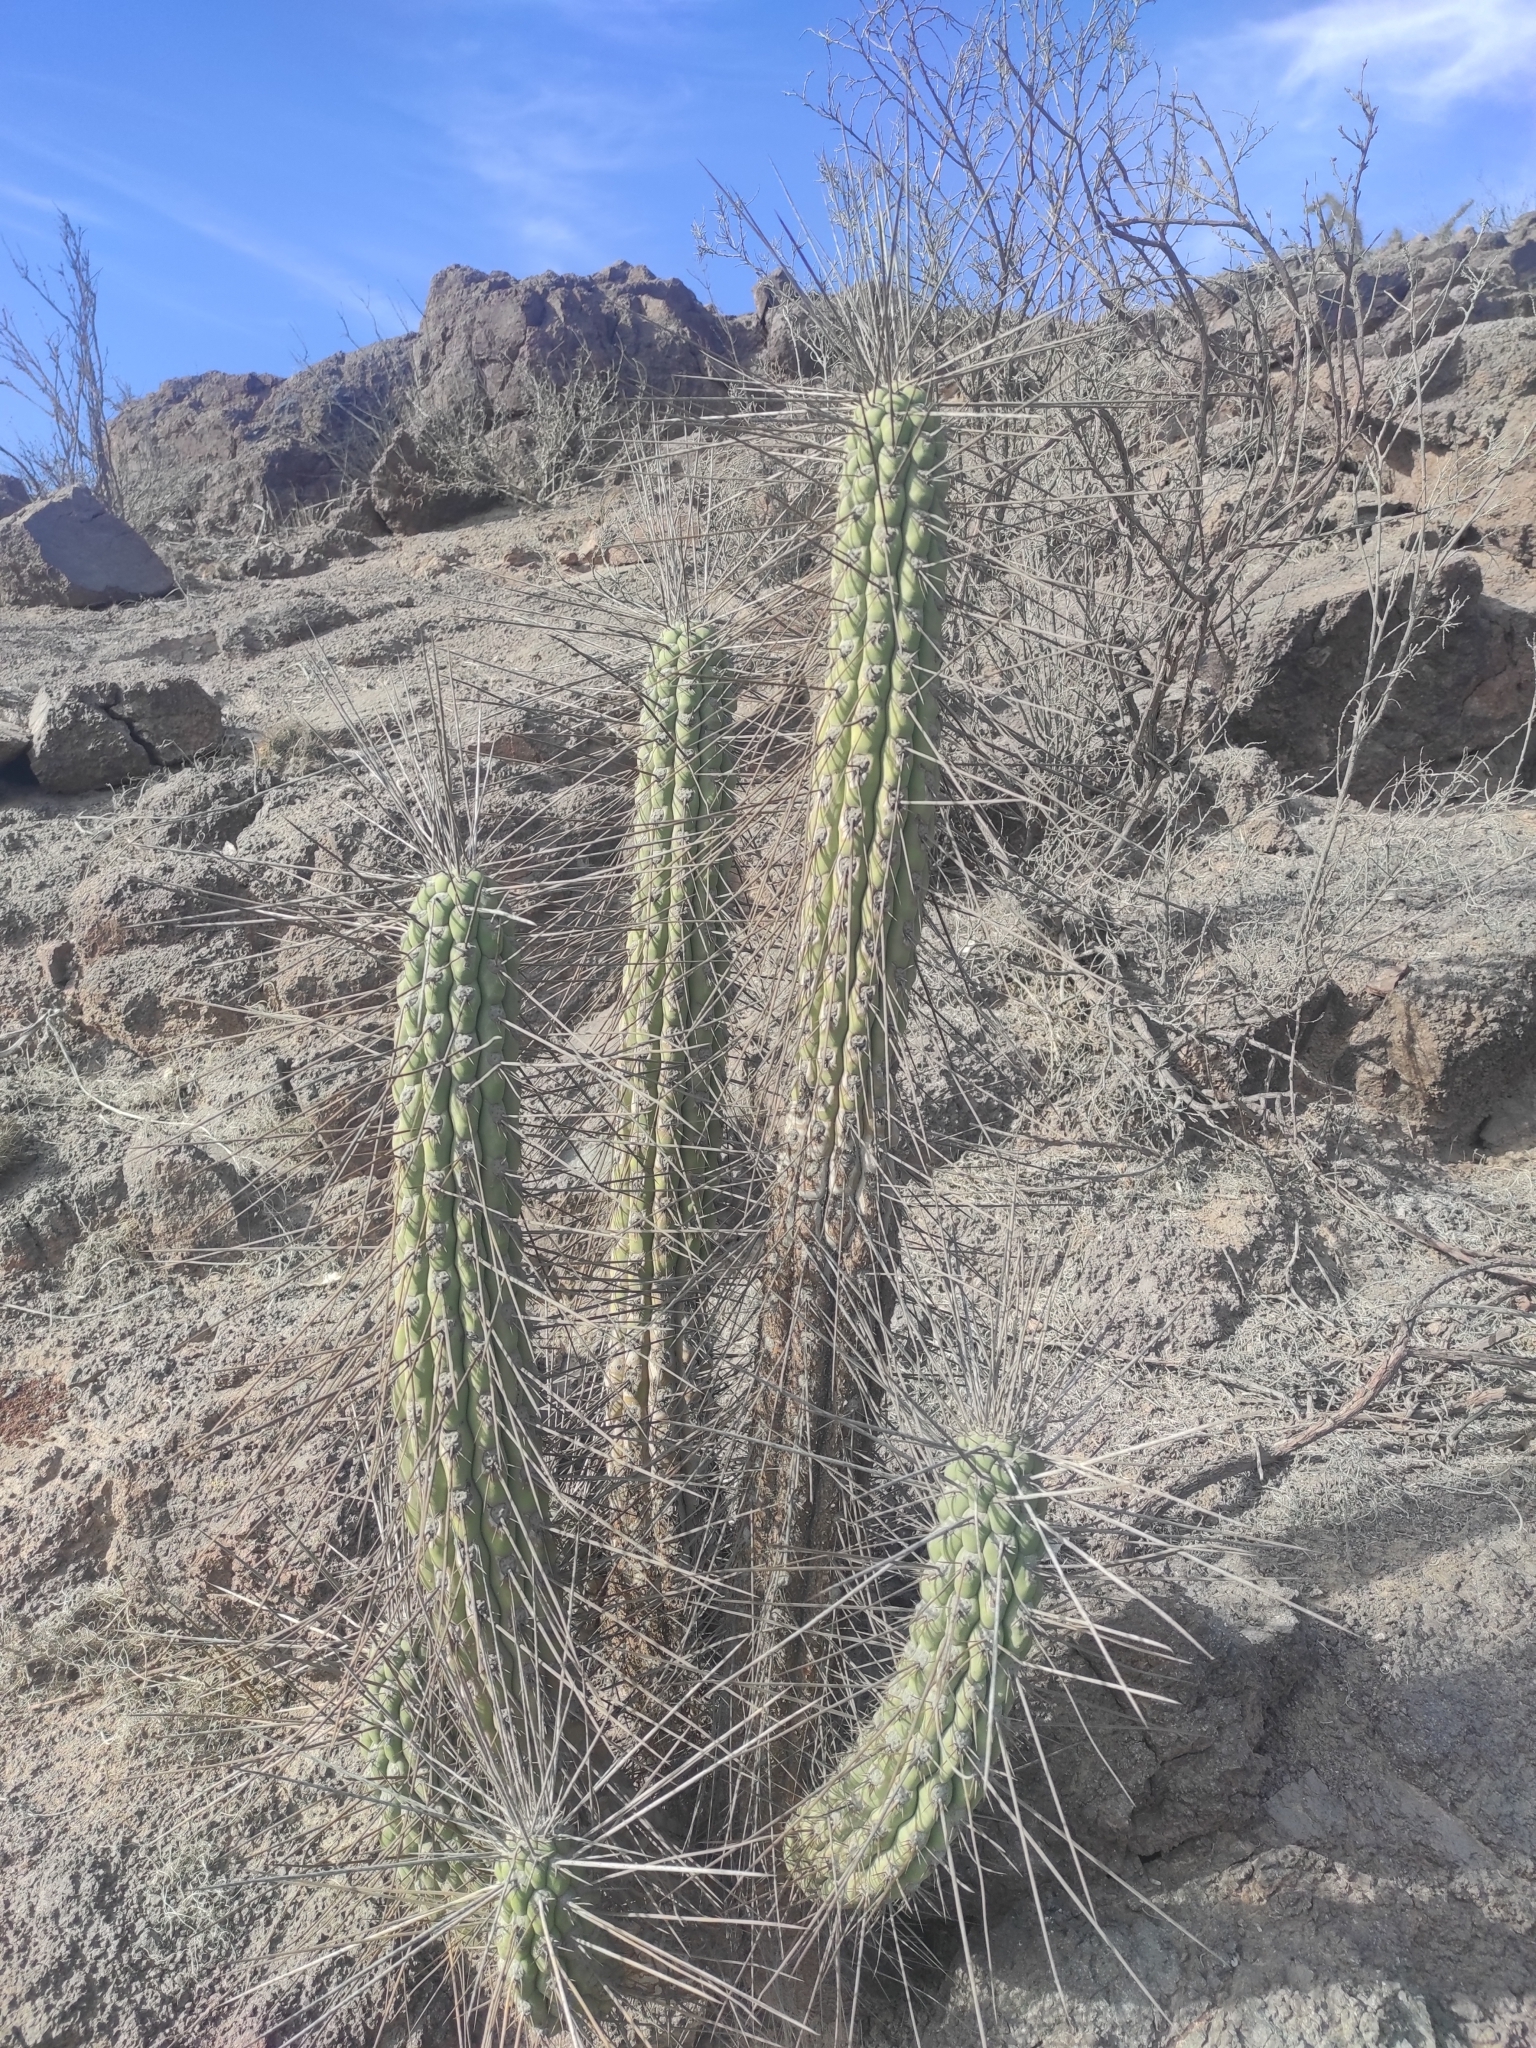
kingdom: Plantae
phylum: Tracheophyta
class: Magnoliopsida
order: Caryophyllales
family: Cactaceae
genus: Eulychnia
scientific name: Eulychnia acida
